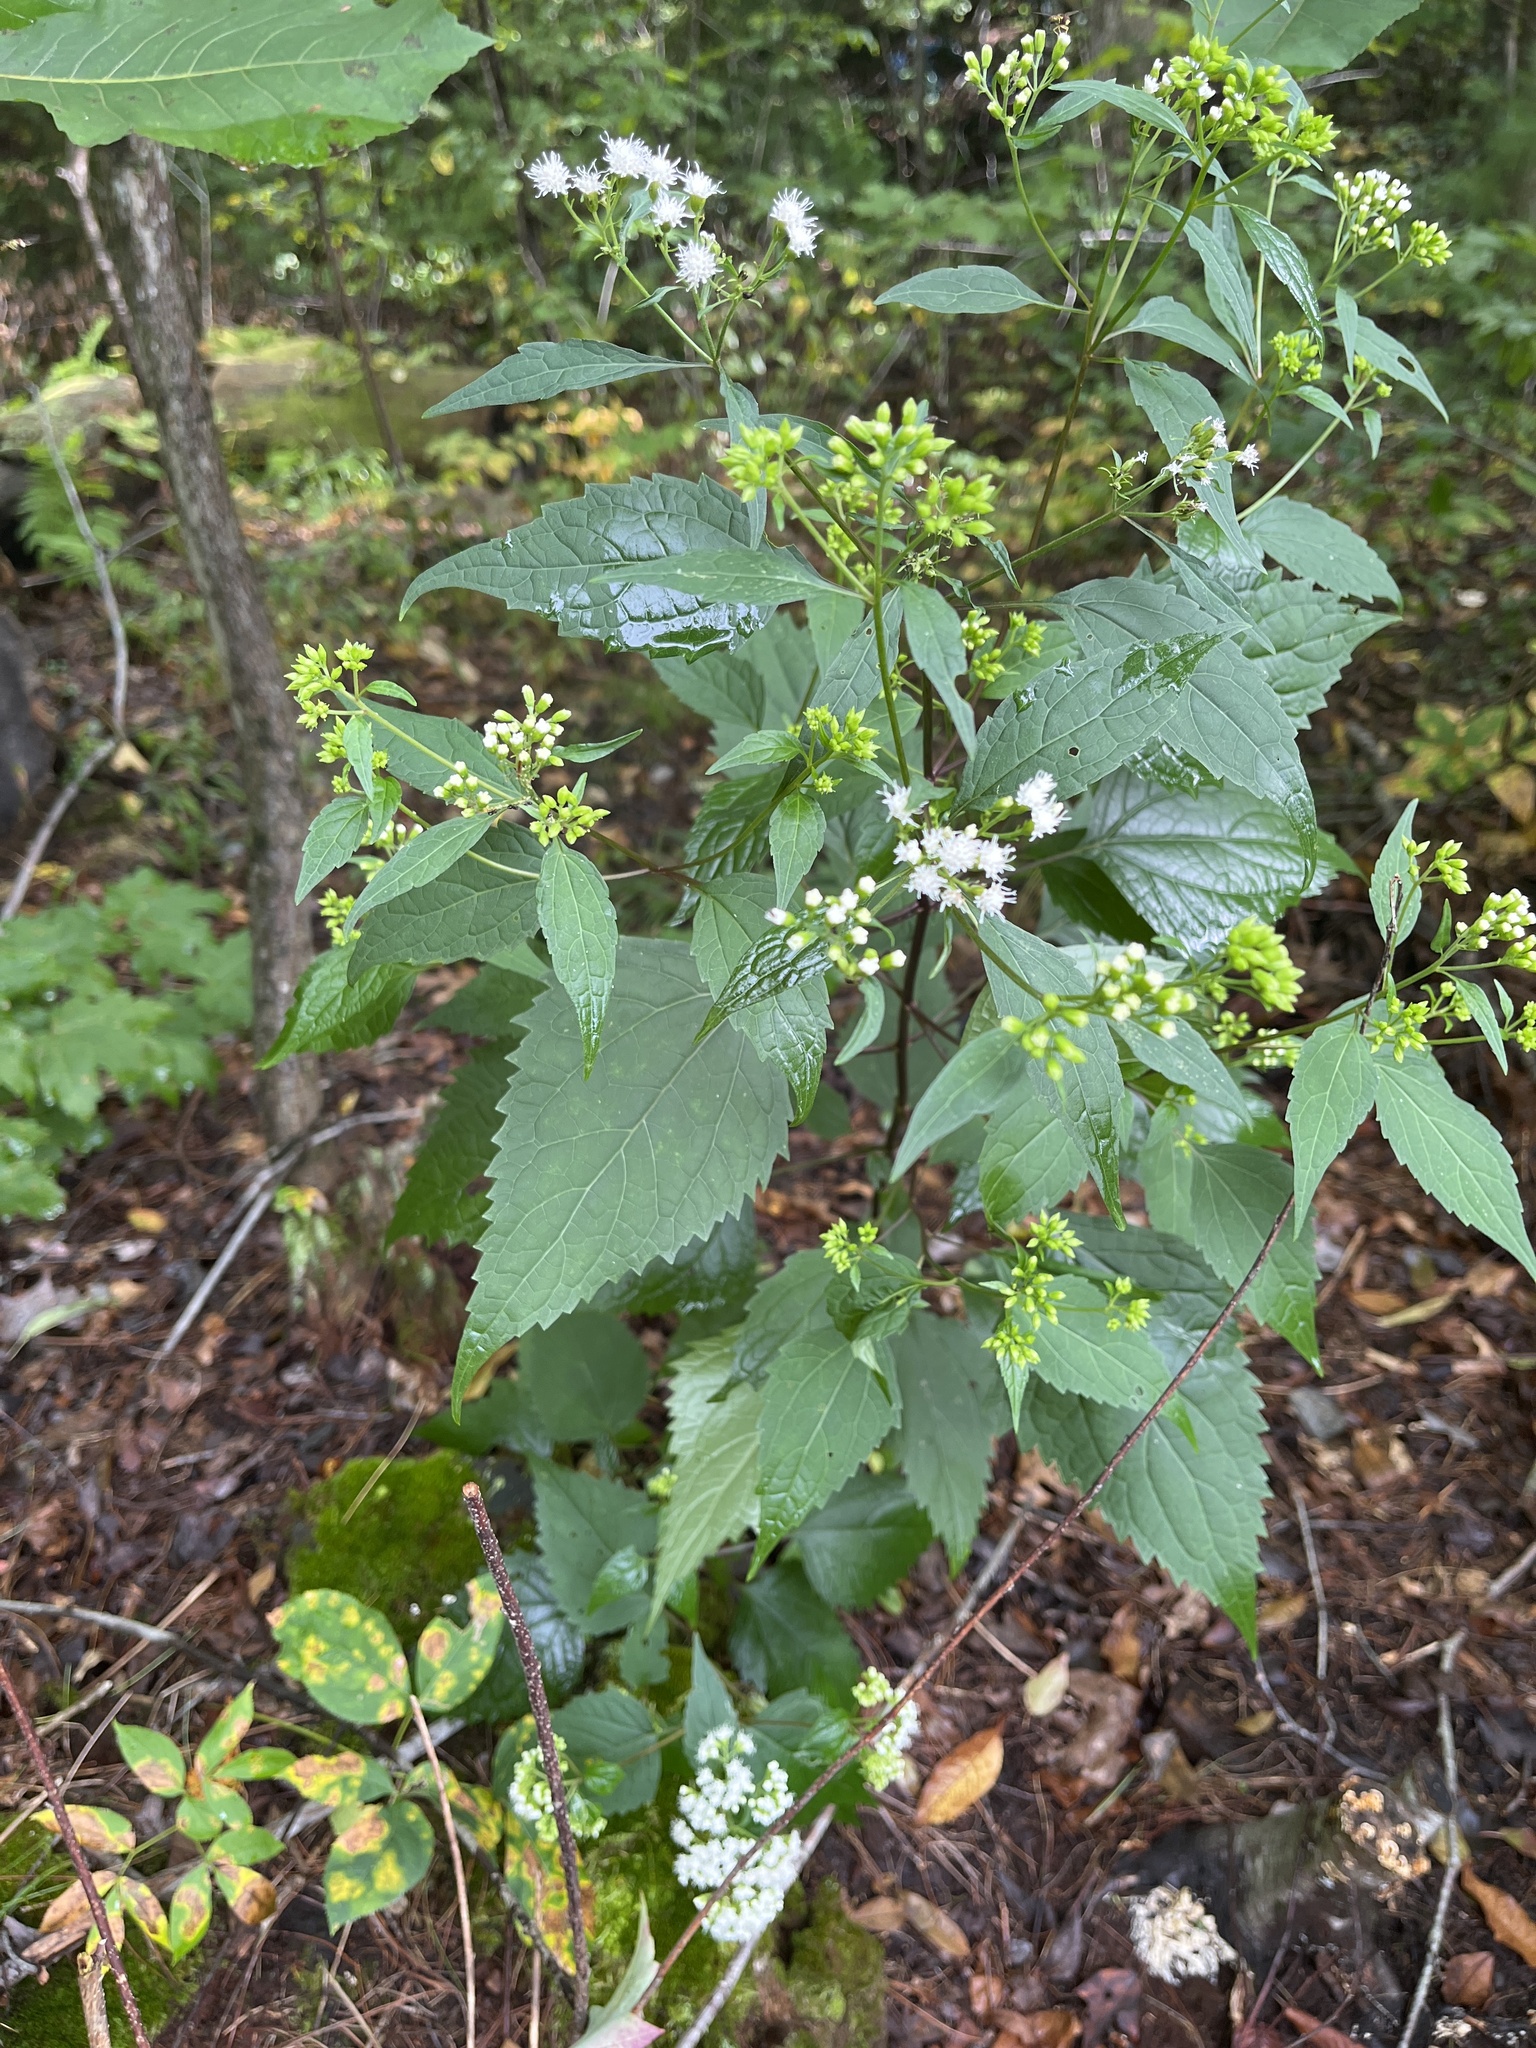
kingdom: Plantae
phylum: Tracheophyta
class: Magnoliopsida
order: Asterales
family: Asteraceae
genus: Ageratina
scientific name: Ageratina altissima
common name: White snakeroot
